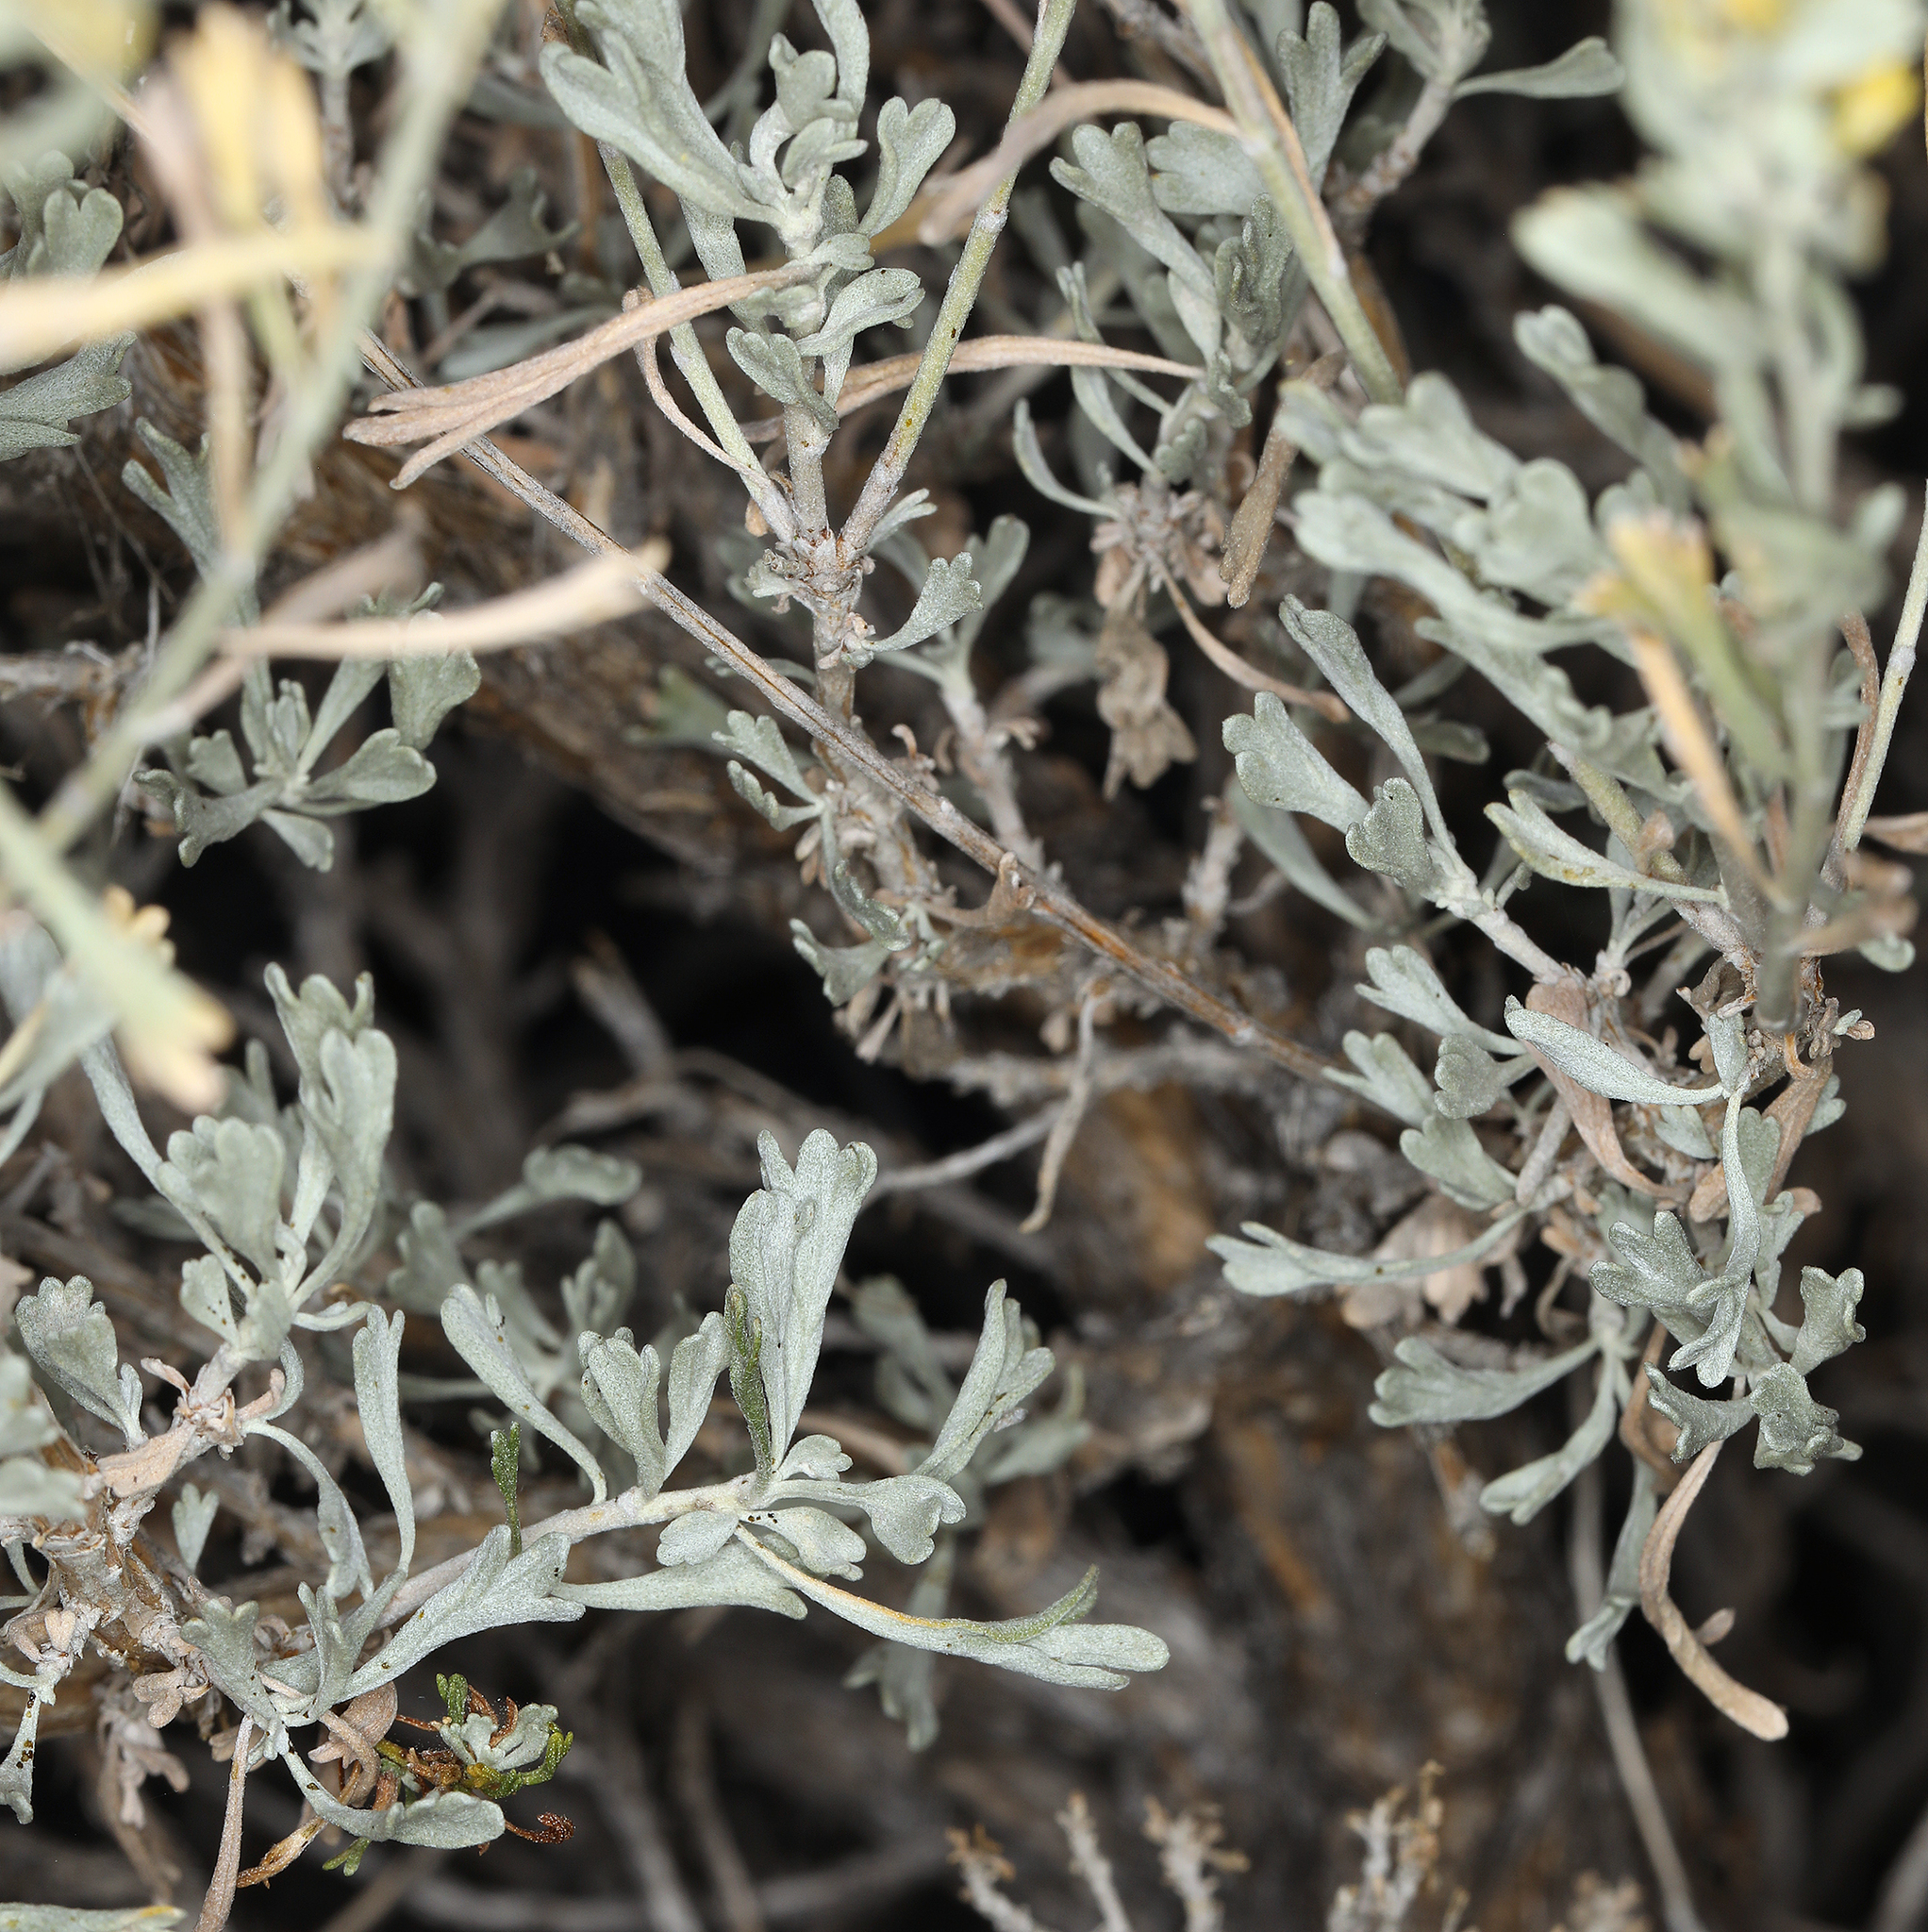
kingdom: Plantae
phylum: Tracheophyta
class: Magnoliopsida
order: Asterales
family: Asteraceae
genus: Artemisia
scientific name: Artemisia tridentata
